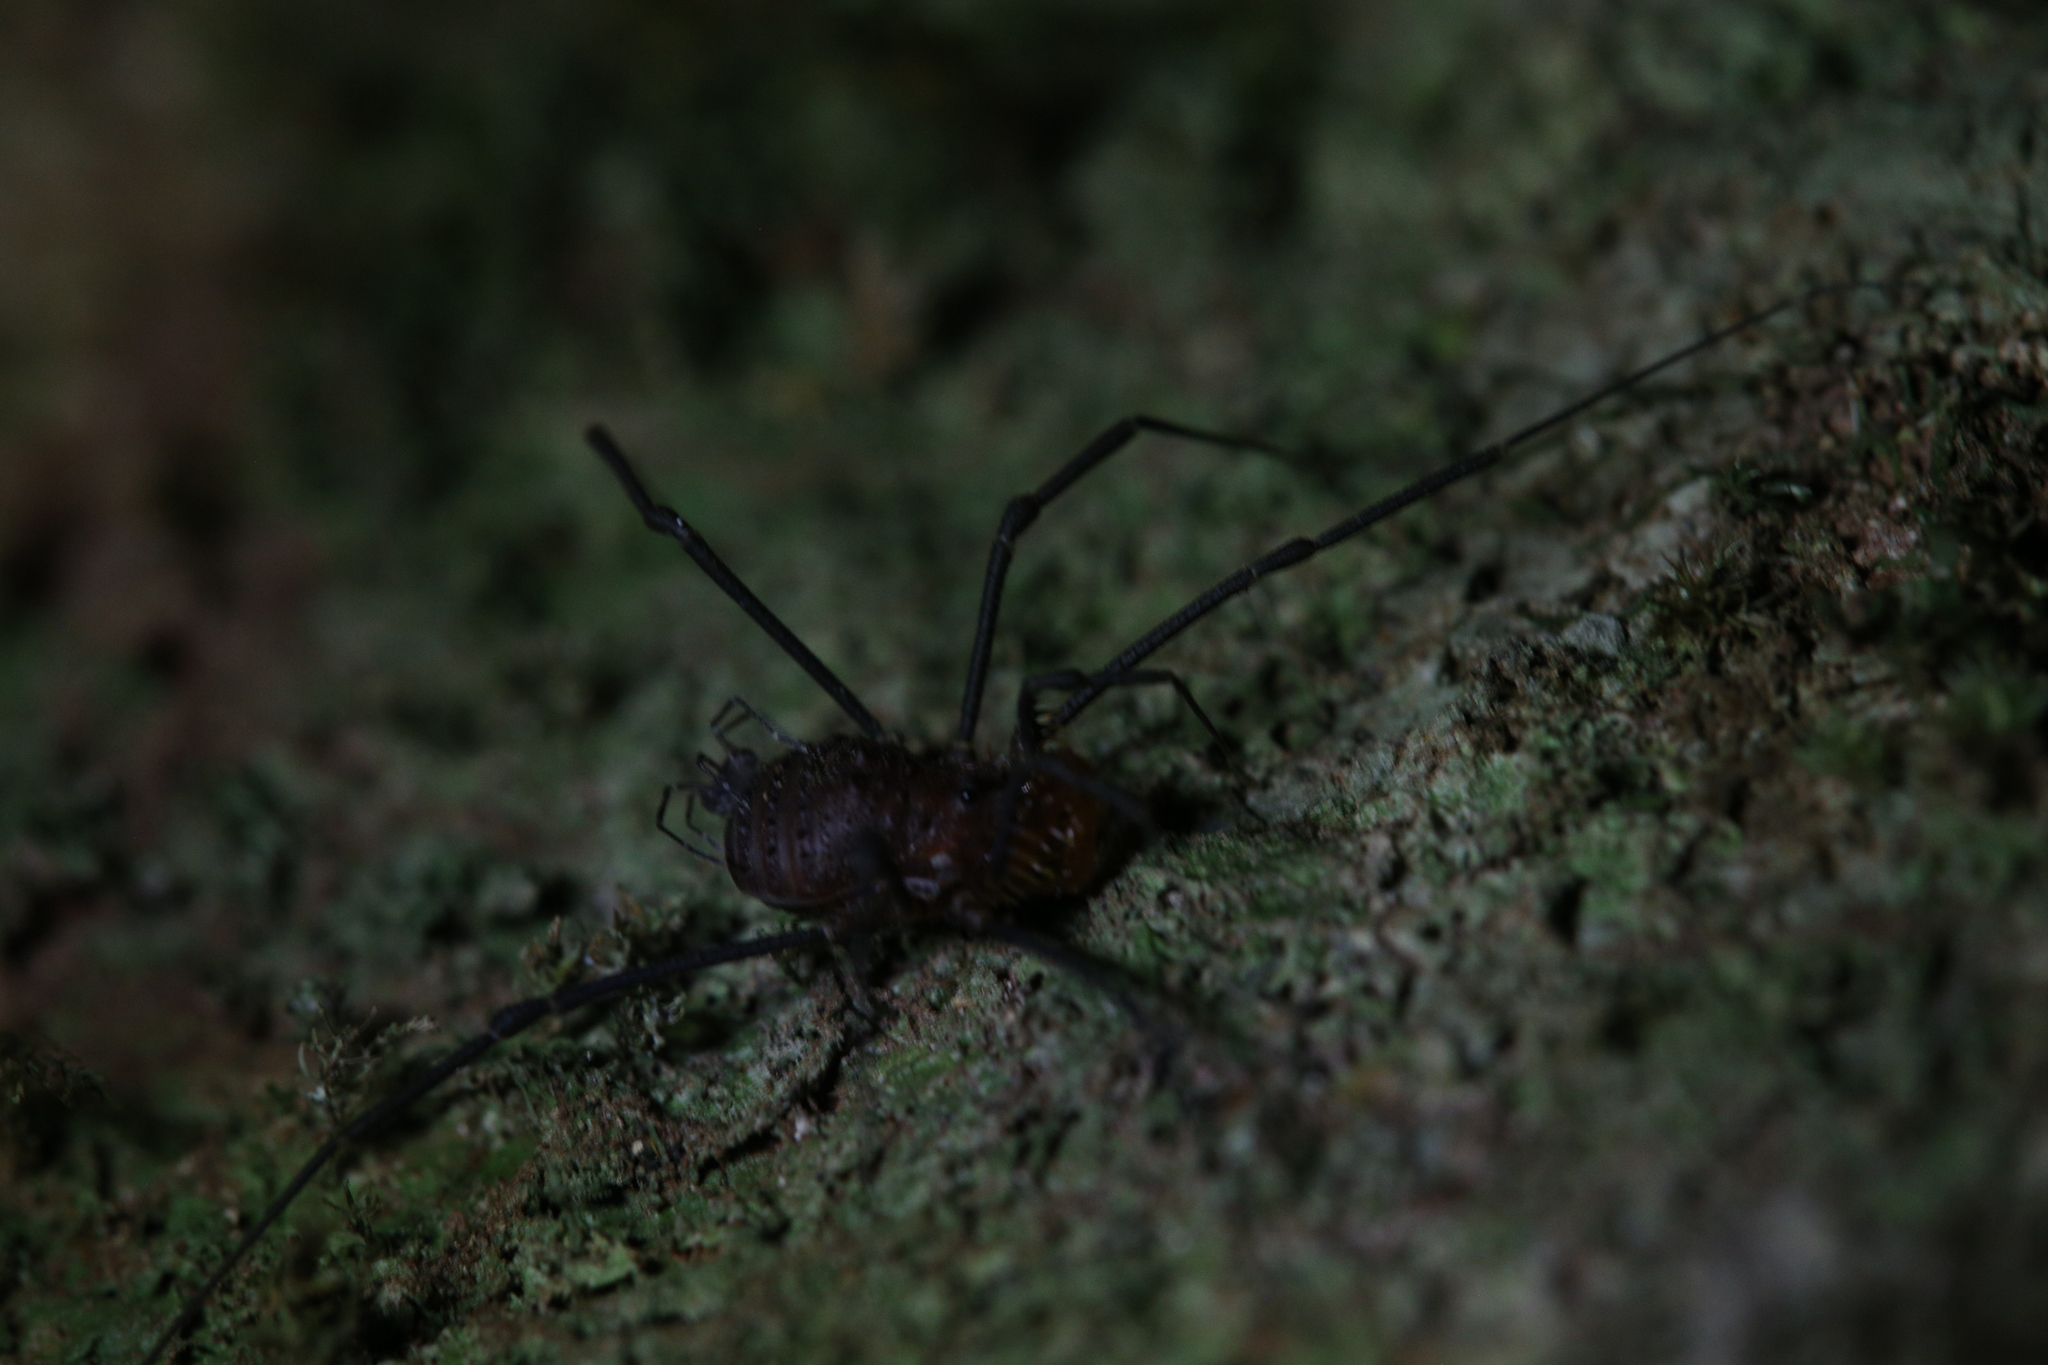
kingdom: Animalia
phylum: Arthropoda
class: Arachnida
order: Opiliones
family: Triaenonychidae
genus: Heteronuncia
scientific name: Heteronuncia robusta
